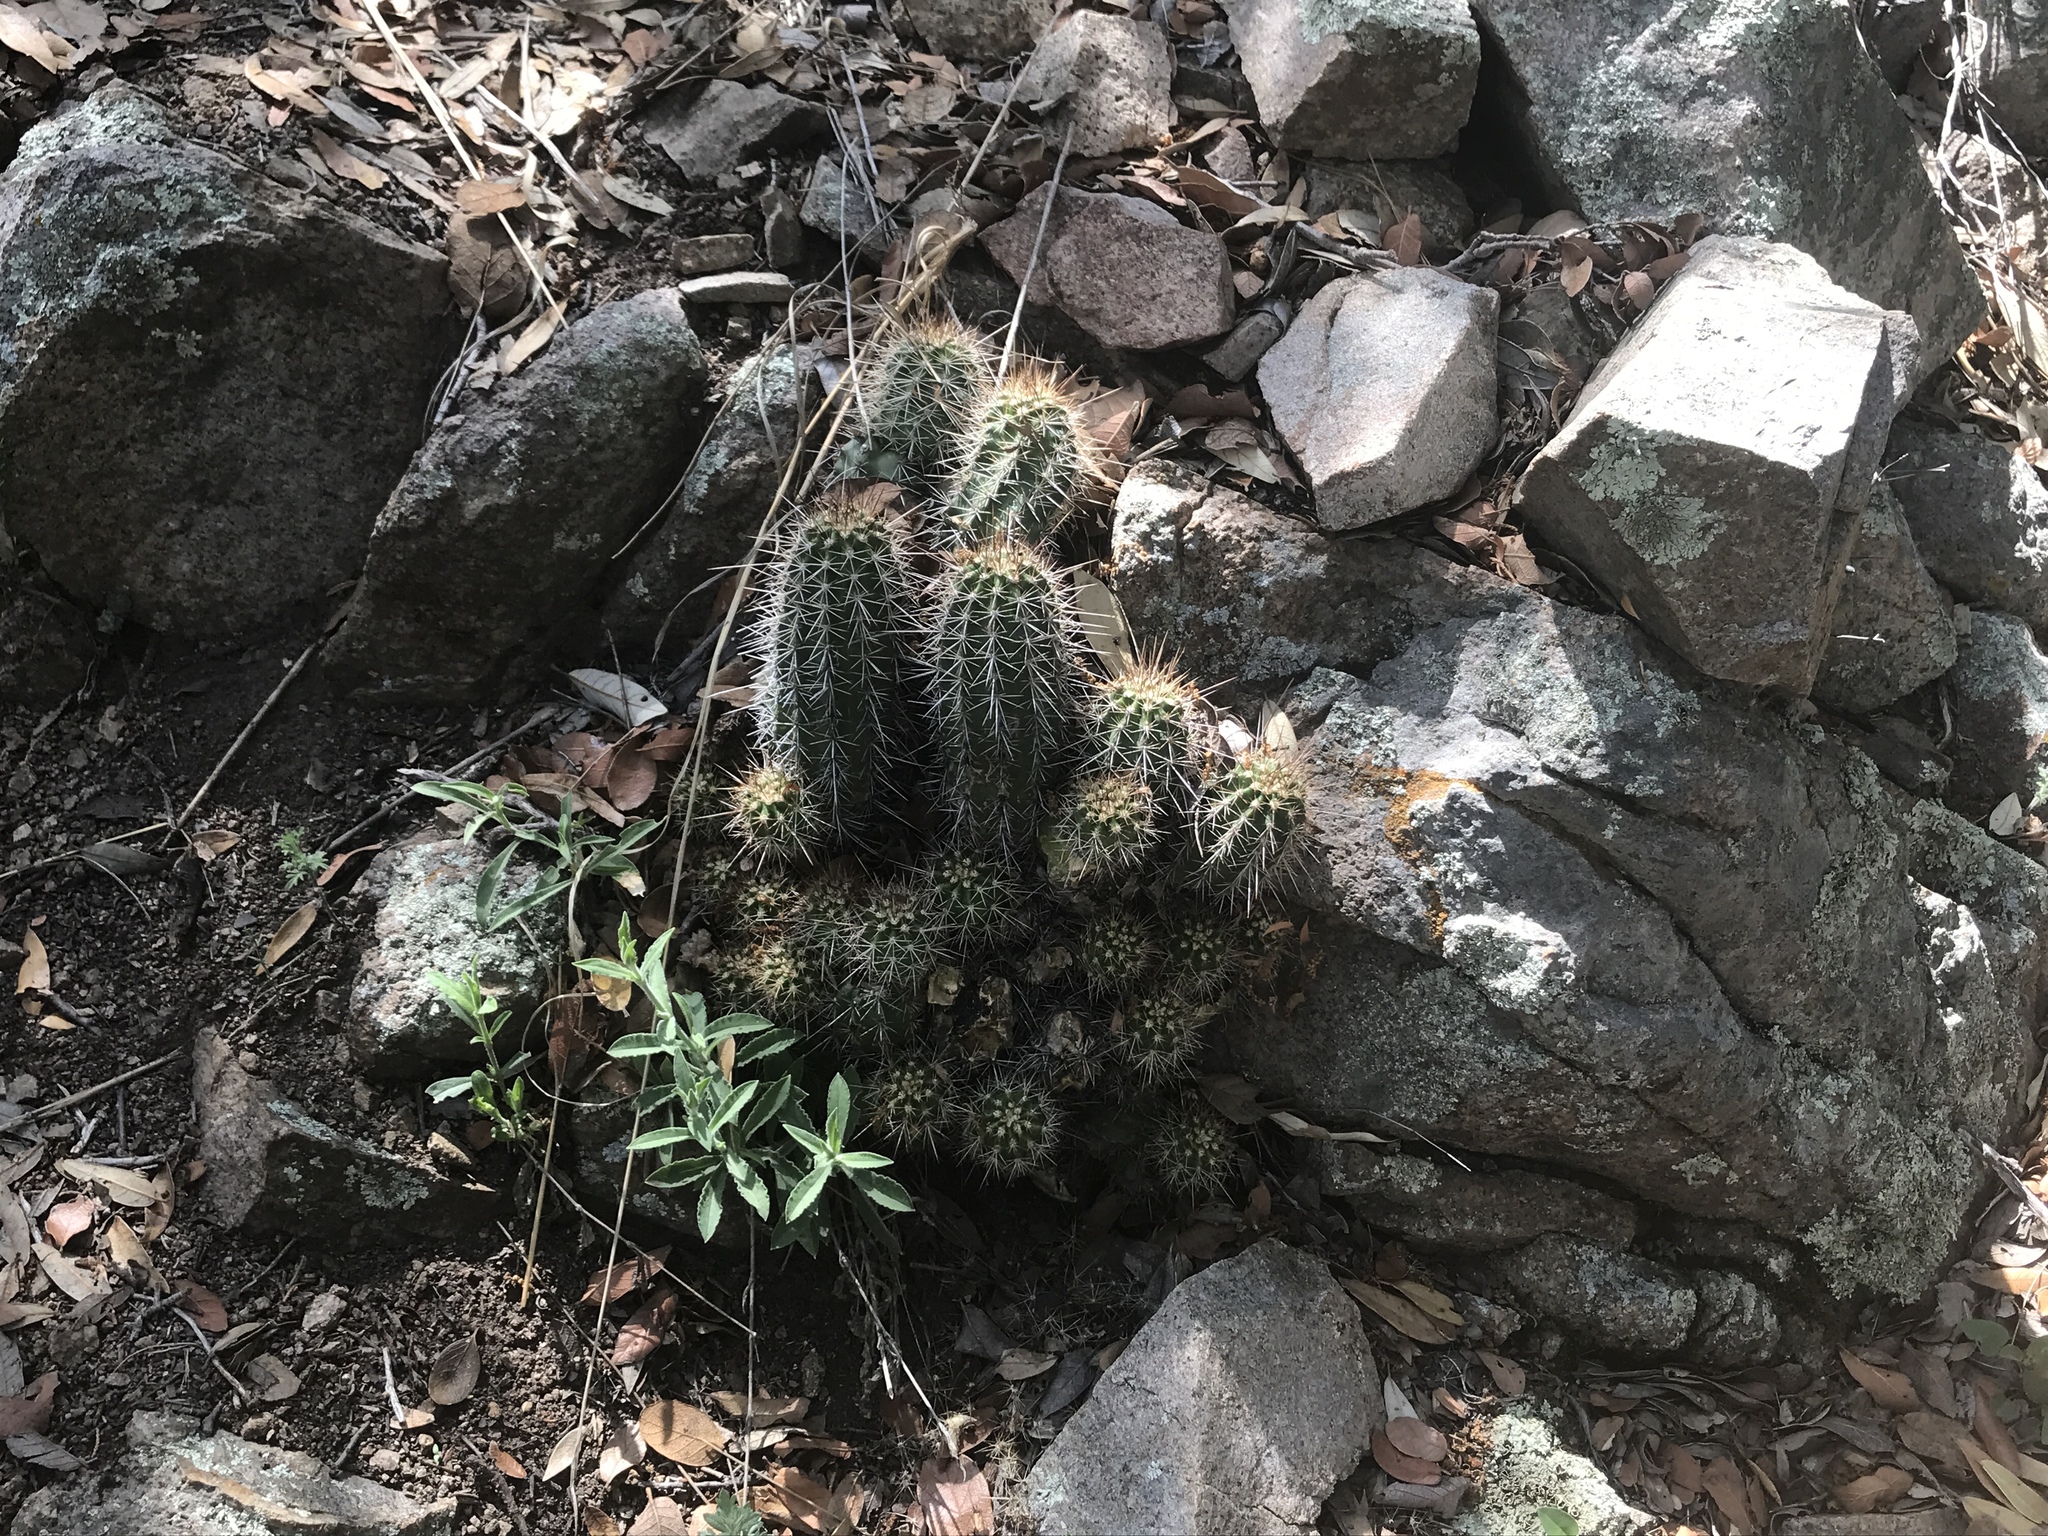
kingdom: Plantae
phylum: Tracheophyta
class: Magnoliopsida
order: Caryophyllales
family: Cactaceae
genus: Echinocereus
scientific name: Echinocereus coccineus
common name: Scarlet hedgehog cactus
